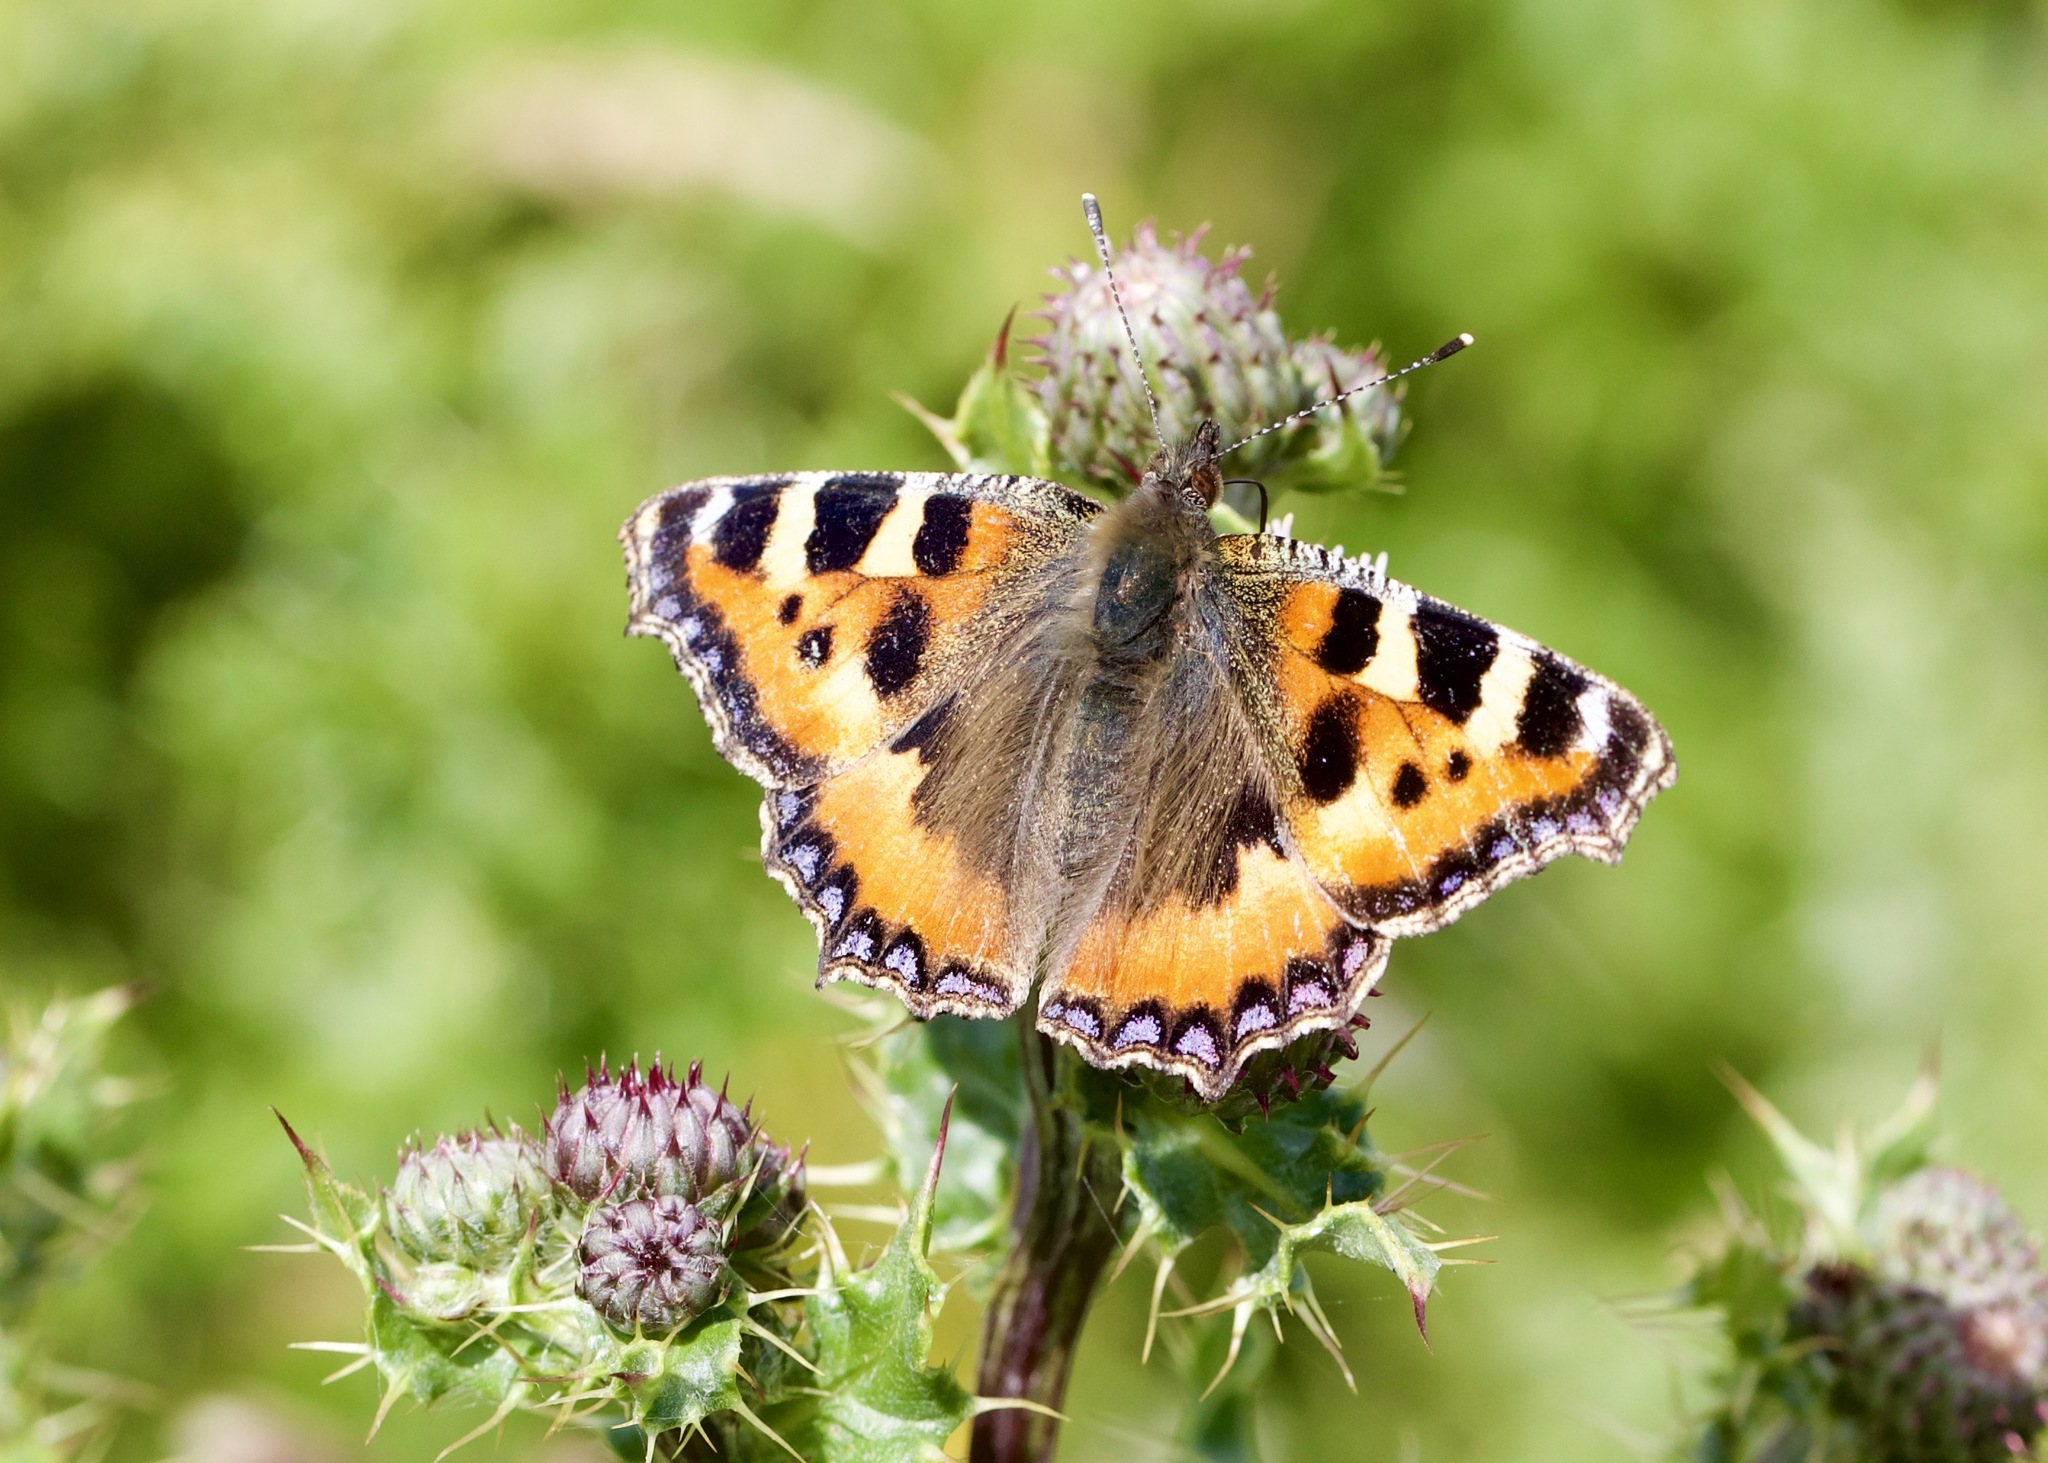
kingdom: Animalia
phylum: Arthropoda
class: Insecta
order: Lepidoptera
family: Nymphalidae
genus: Aglais
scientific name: Aglais urticae
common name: Small tortoiseshell
